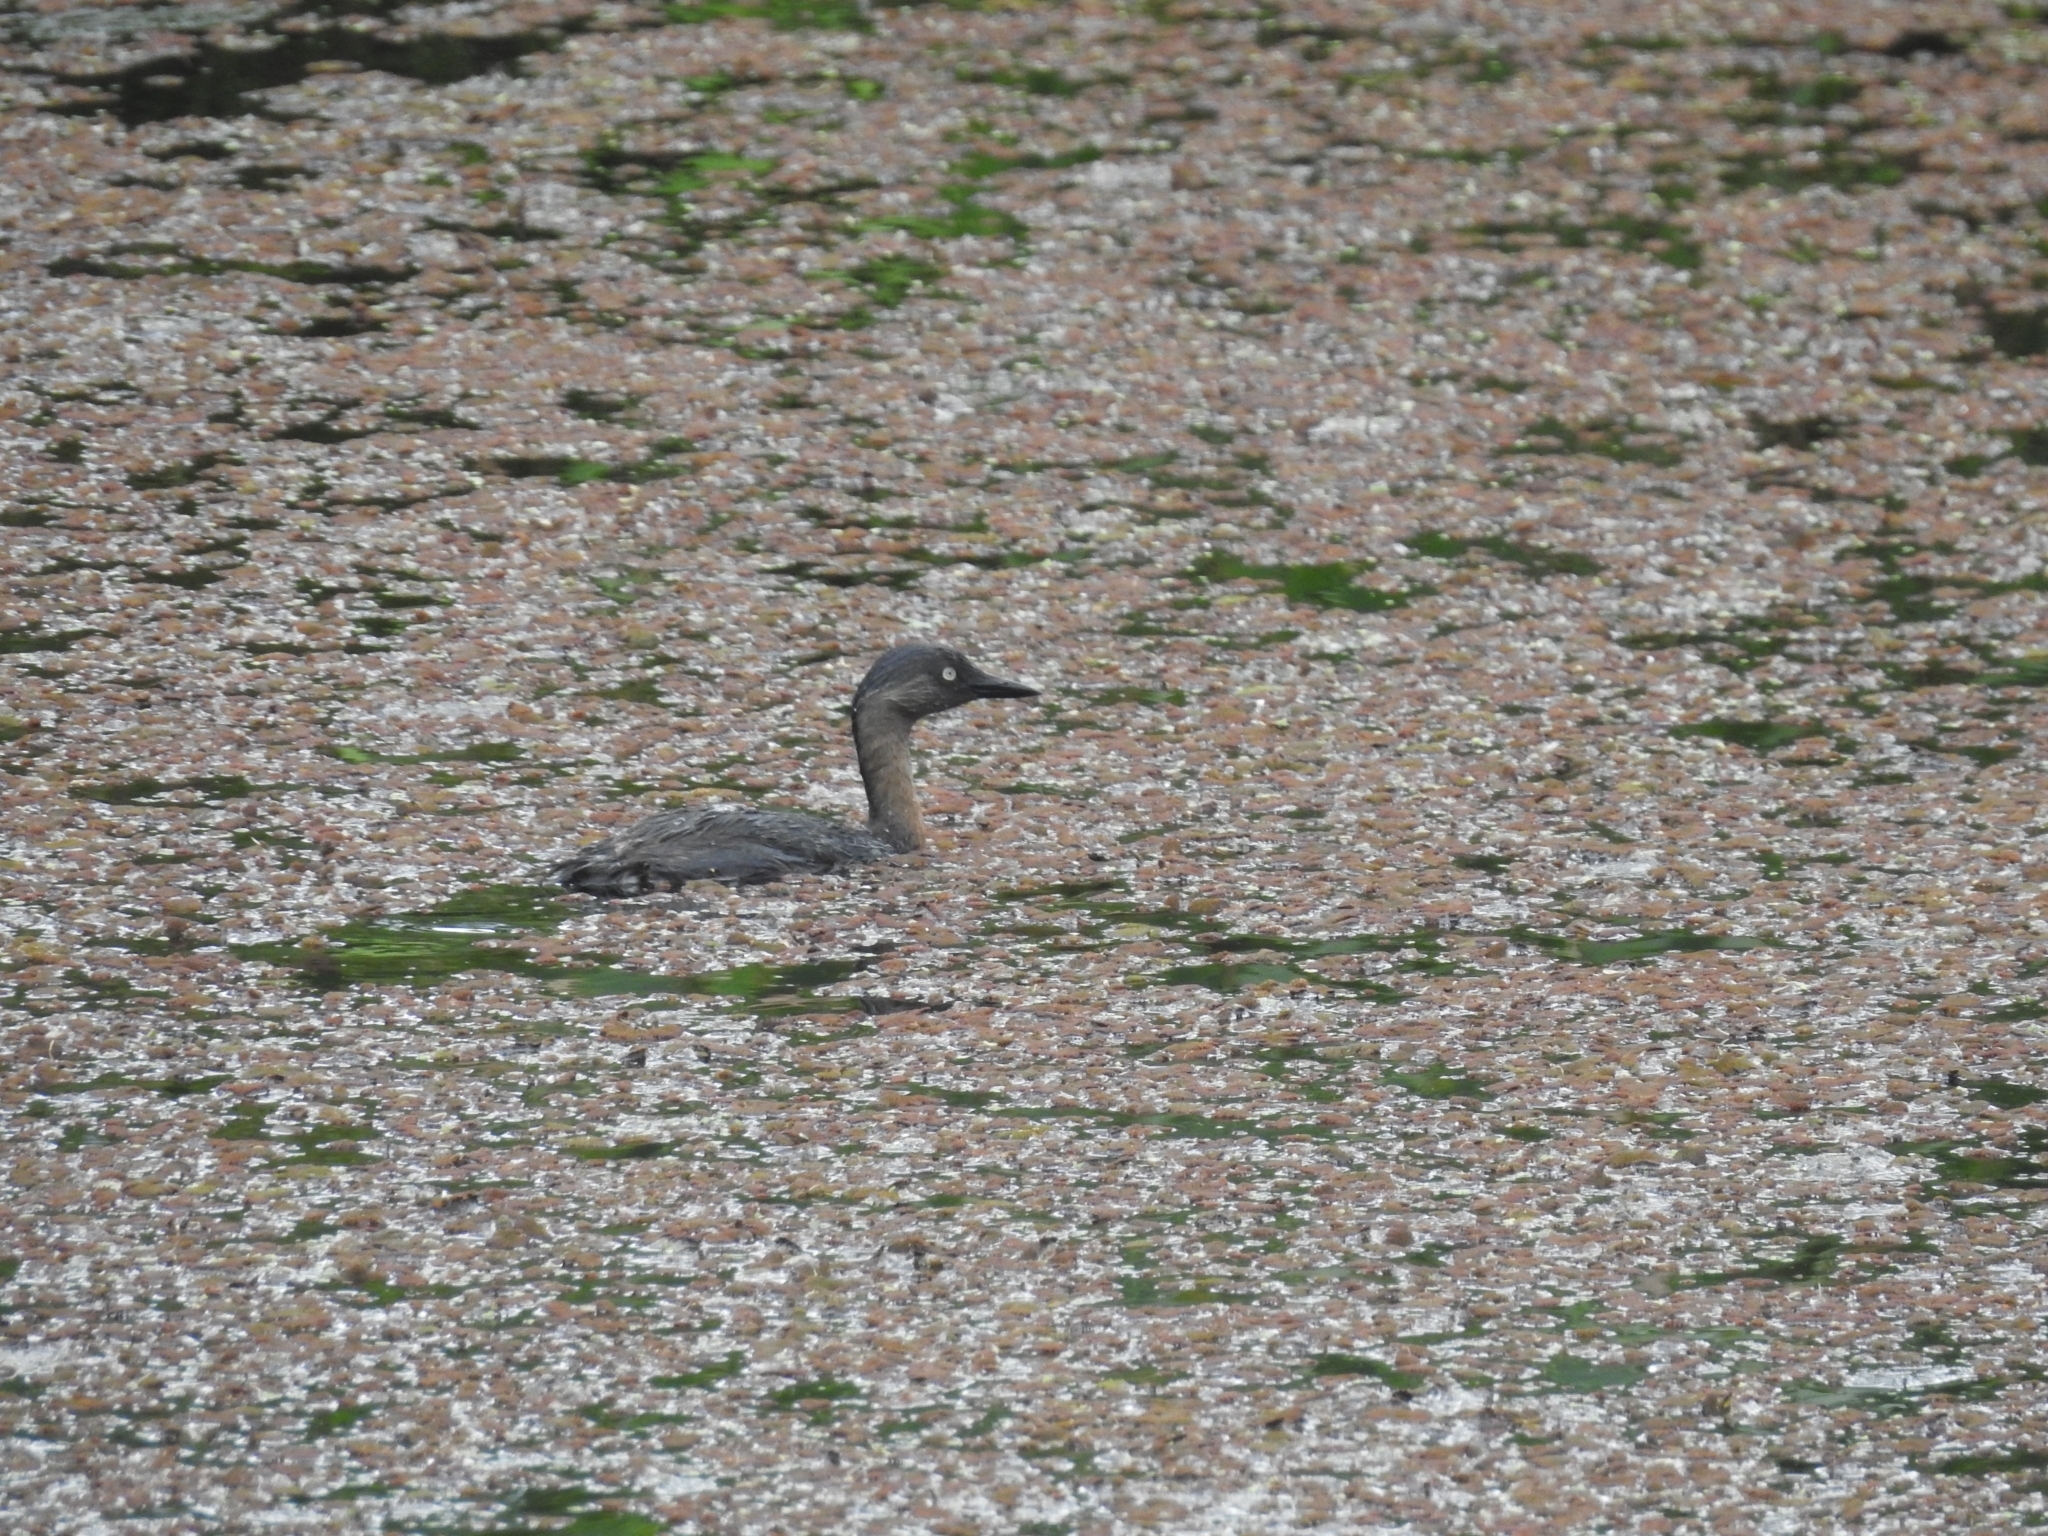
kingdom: Animalia
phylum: Chordata
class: Aves
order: Podicipediformes
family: Podicipedidae
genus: Poliocephalus
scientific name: Poliocephalus rufopectus
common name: New zealand grebe
